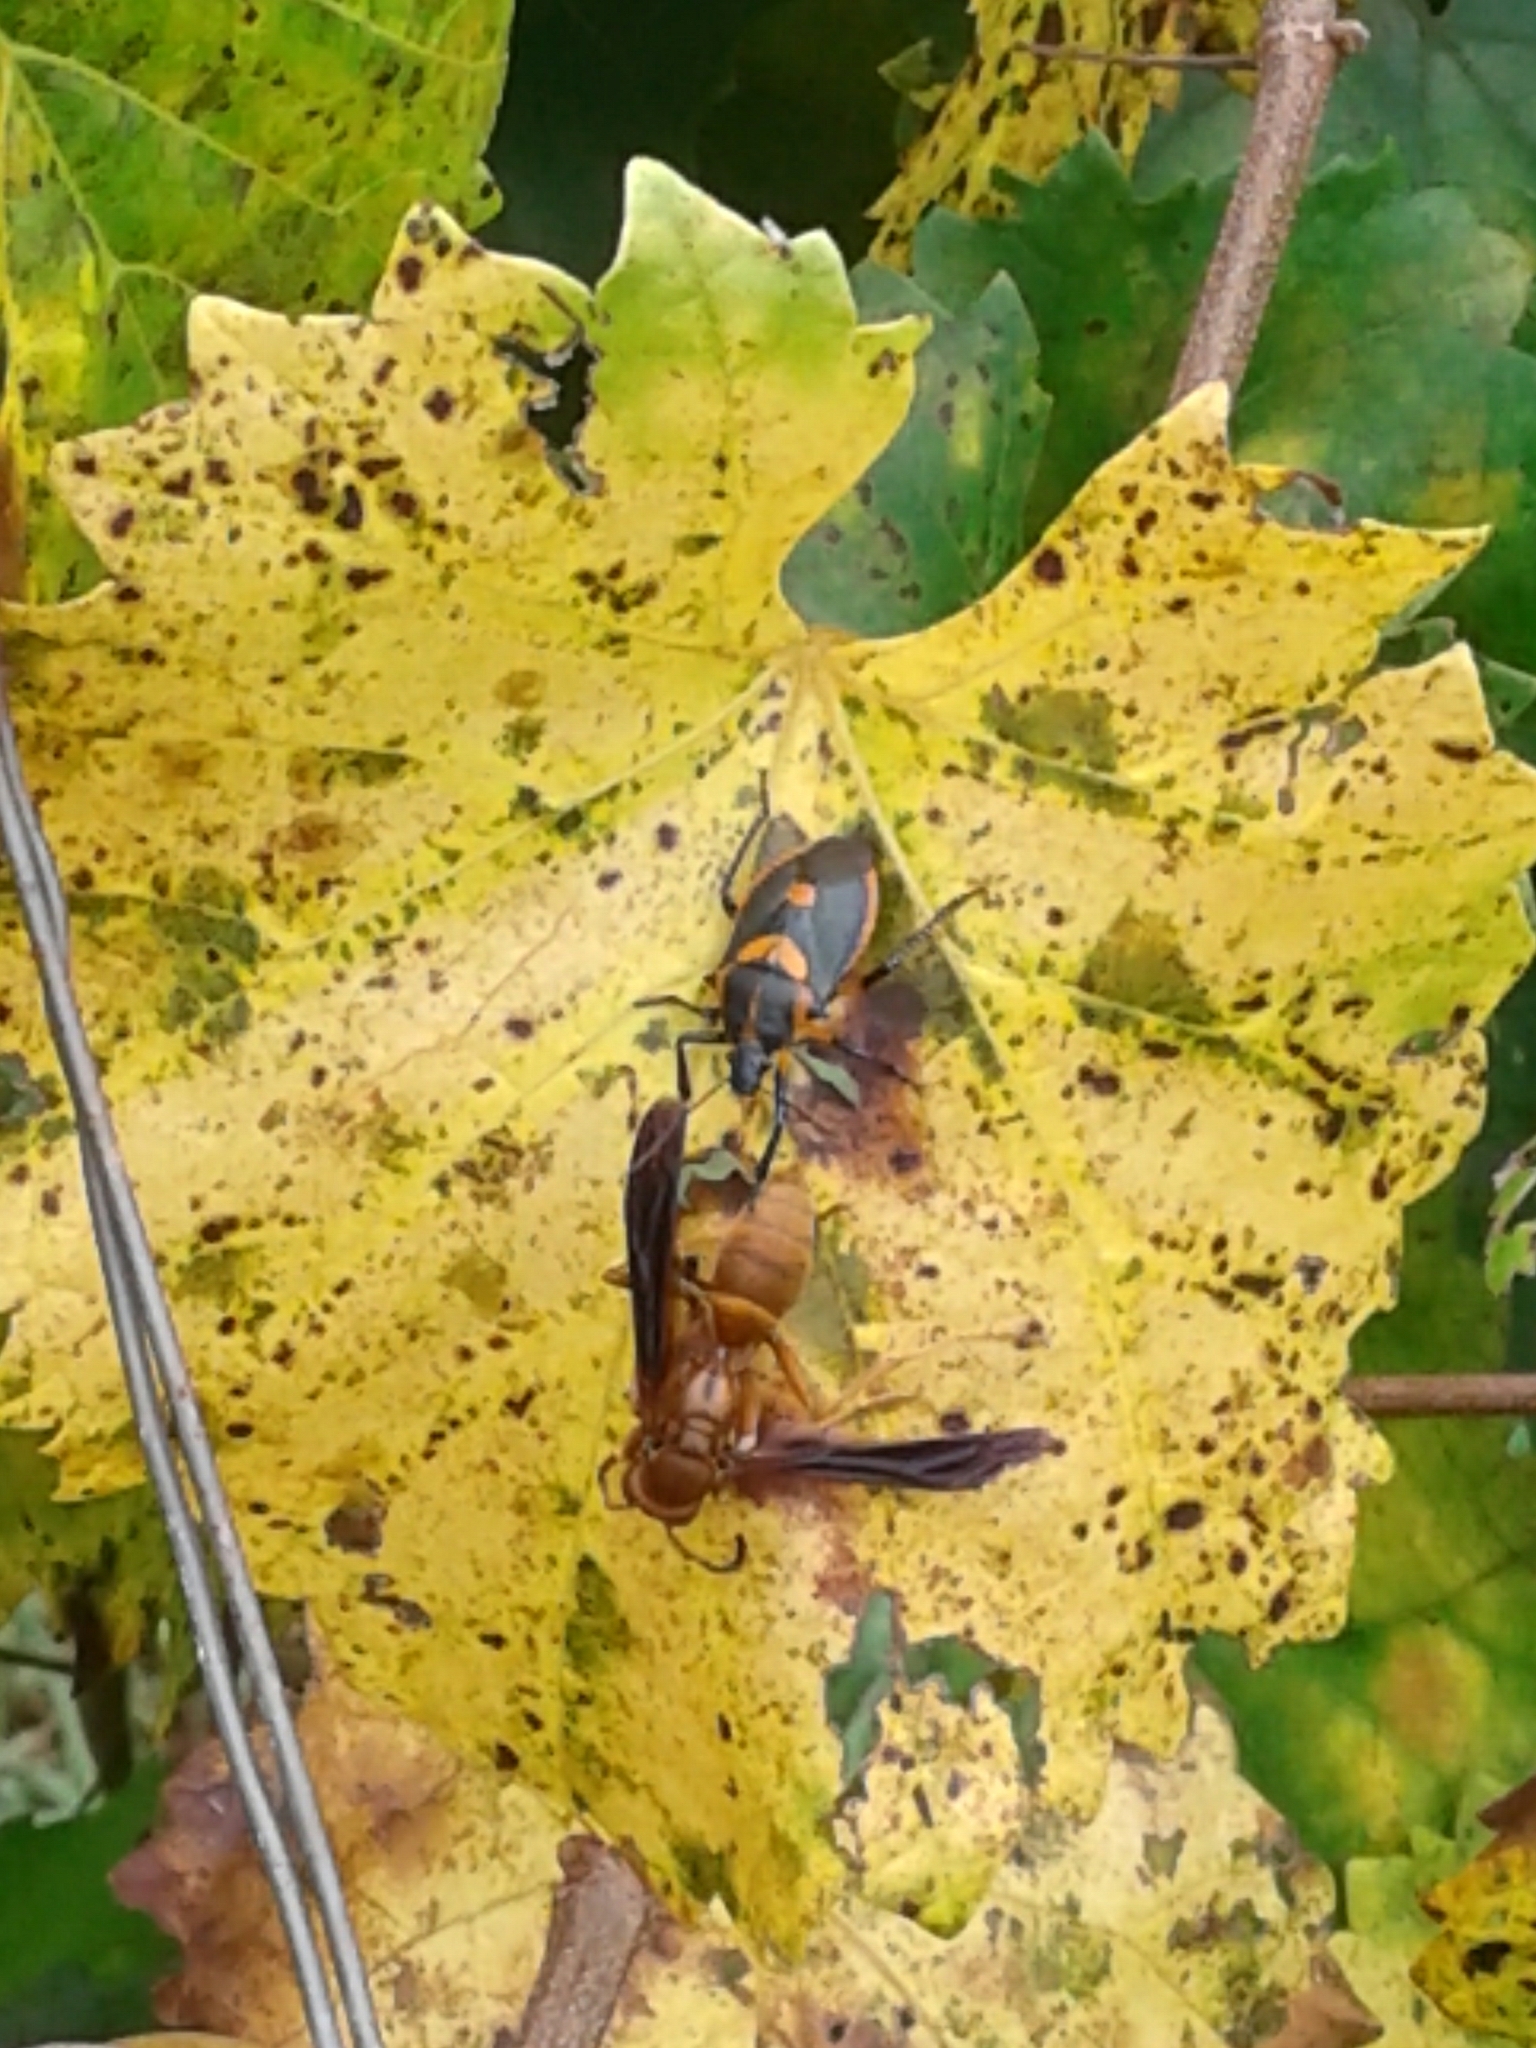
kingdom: Animalia
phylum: Arthropoda
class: Insecta
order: Hemiptera
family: Pentatomidae
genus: Euthyrhynchus
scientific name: Euthyrhynchus floridanus
